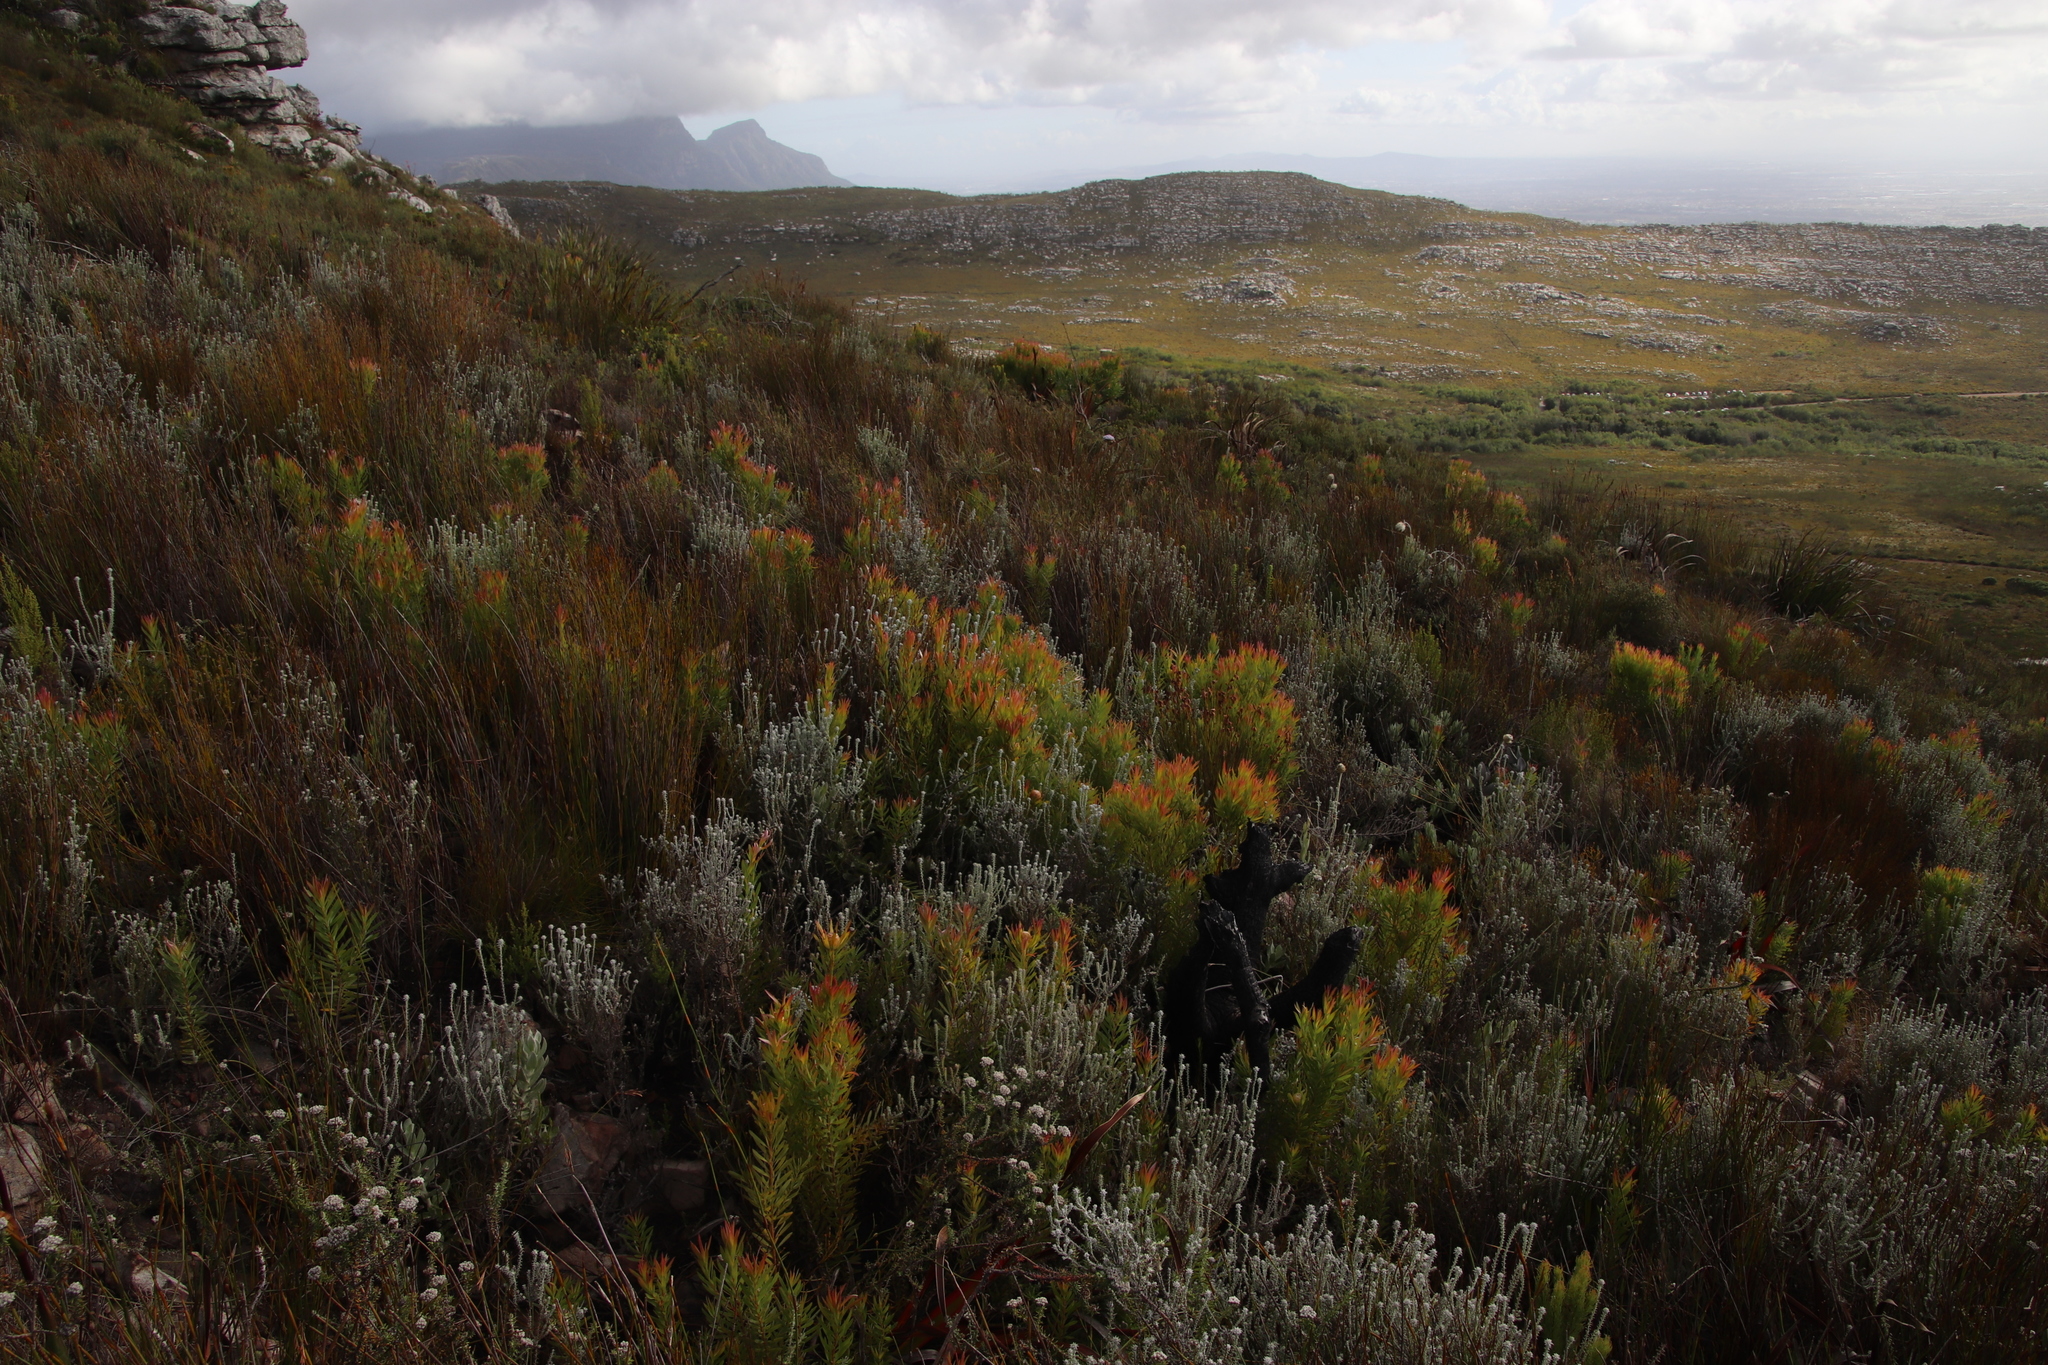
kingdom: Plantae
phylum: Tracheophyta
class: Magnoliopsida
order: Proteales
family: Proteaceae
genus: Leucadendron
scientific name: Leucadendron xanthoconus
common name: Sickle-leaf conebush
